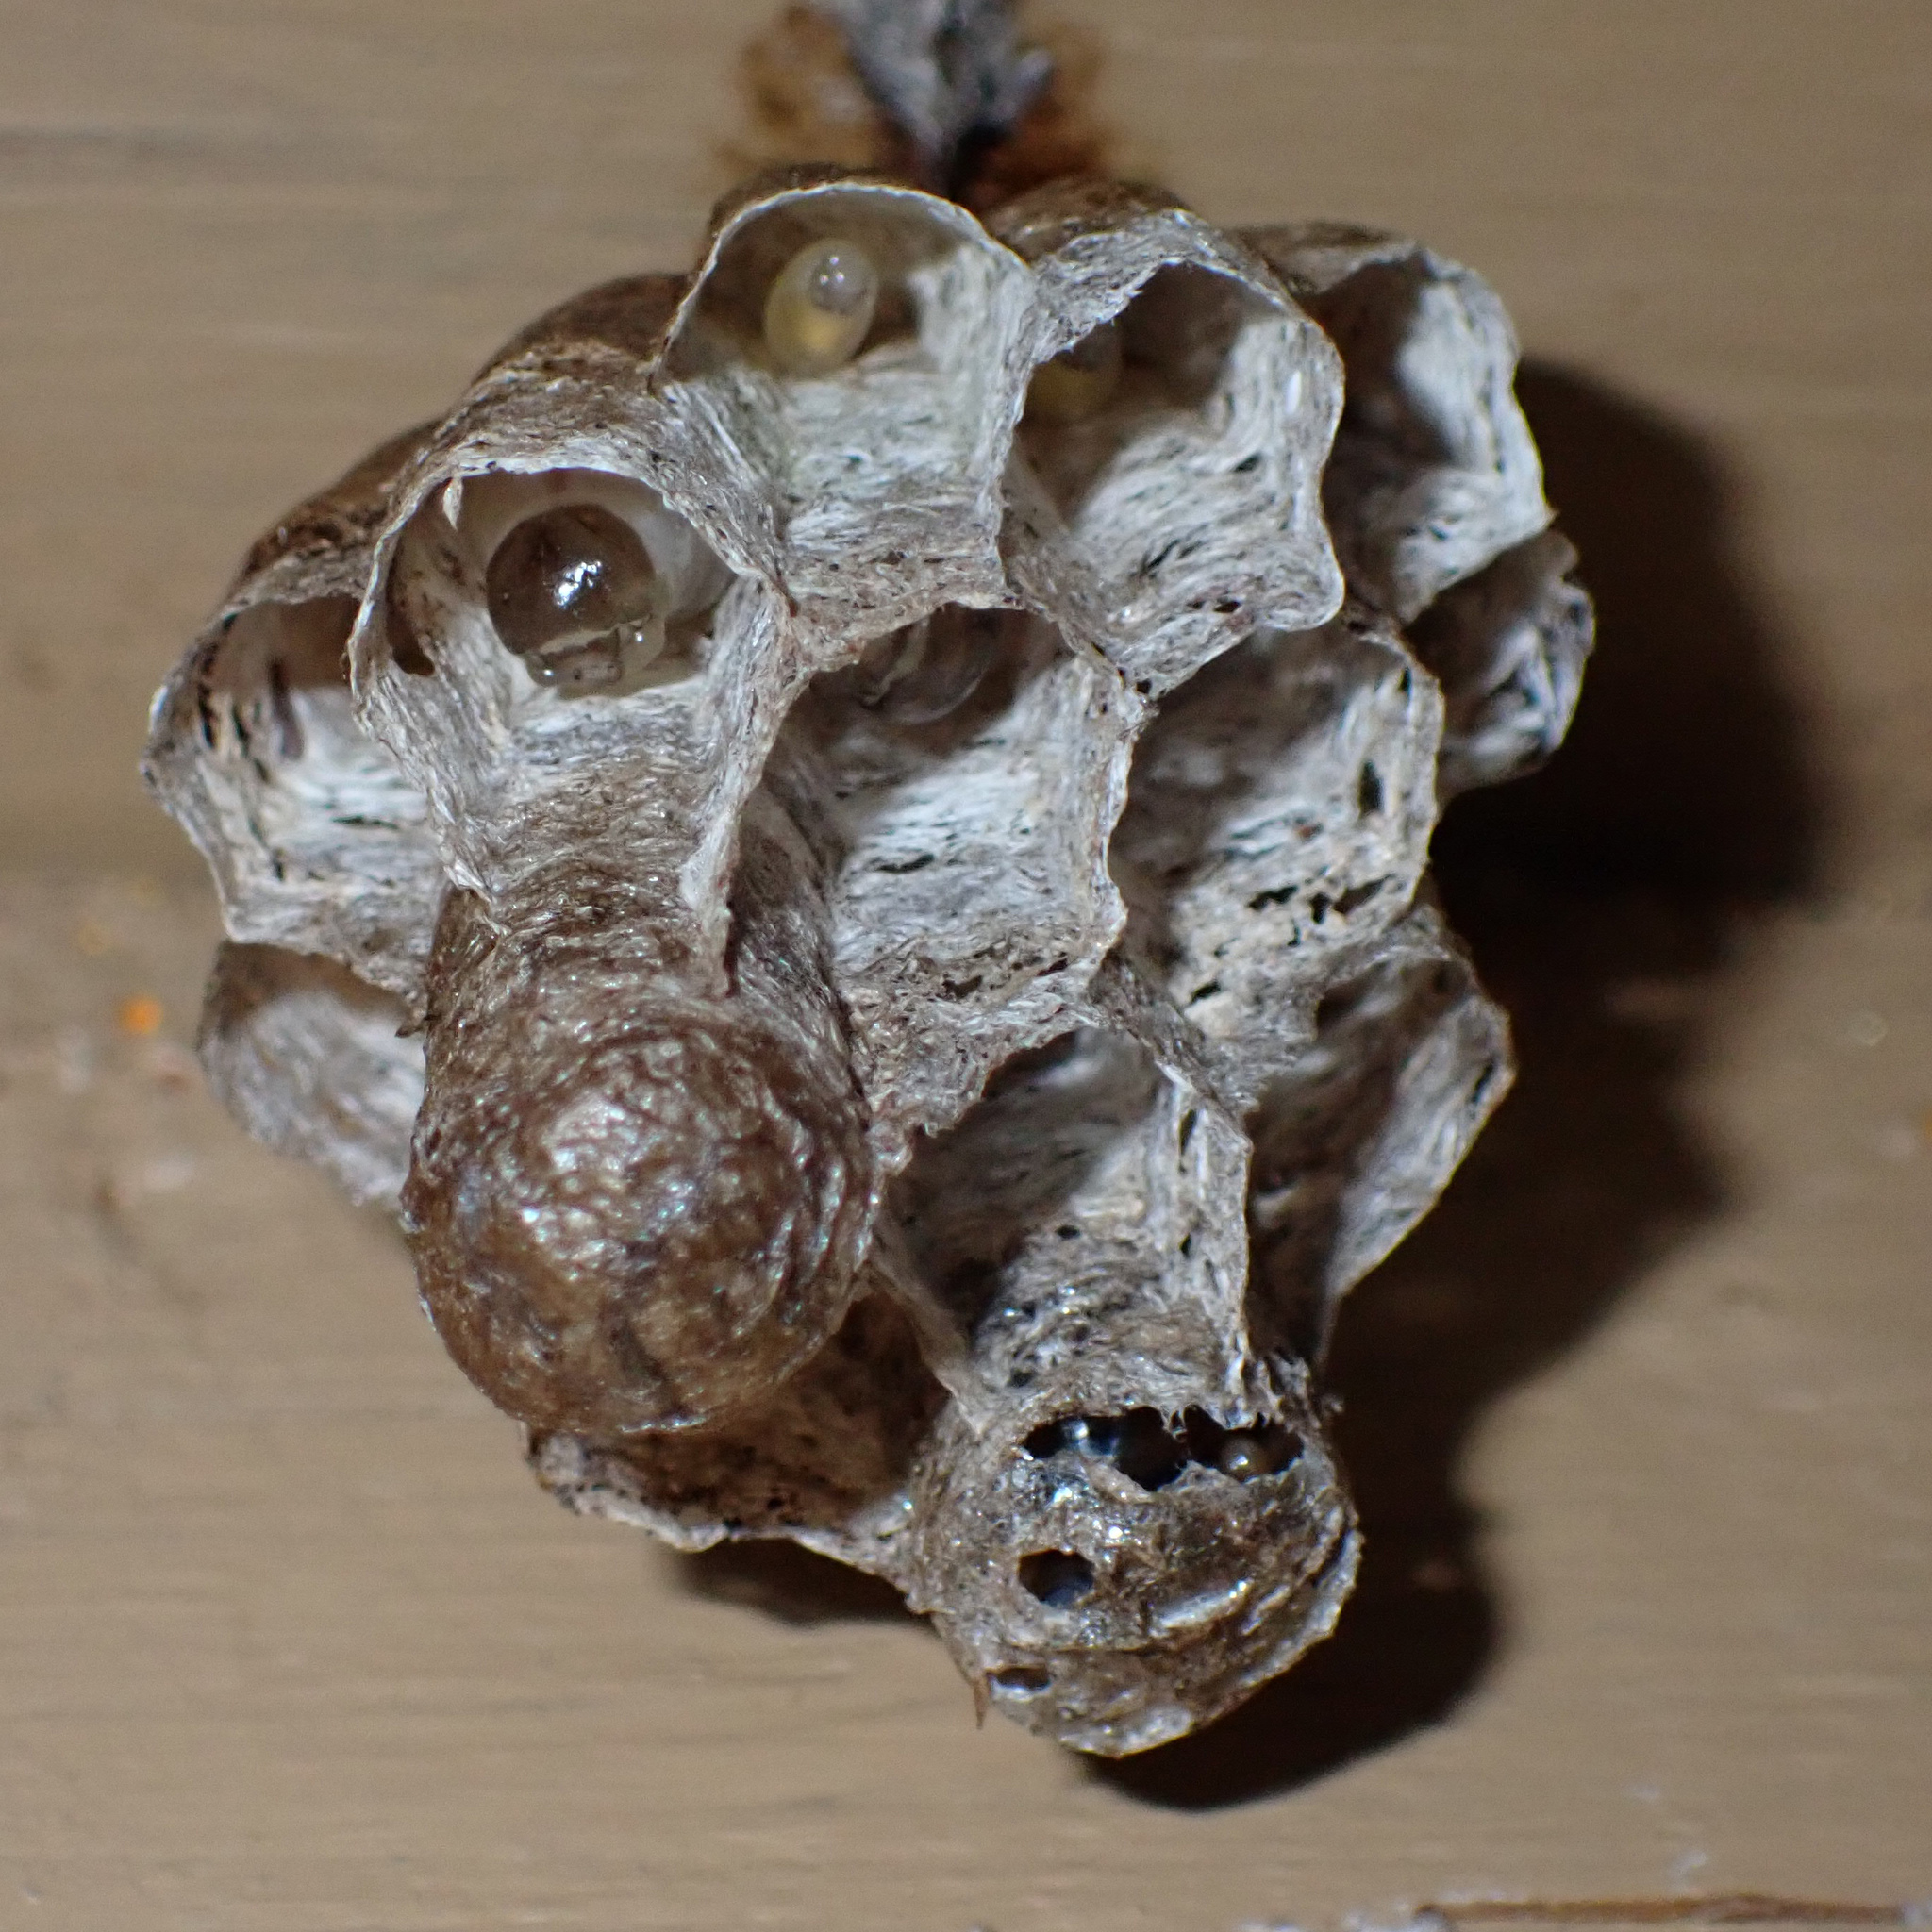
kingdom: Animalia
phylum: Arthropoda
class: Insecta
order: Hymenoptera
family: Eumenidae
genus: Polistes
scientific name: Polistes
